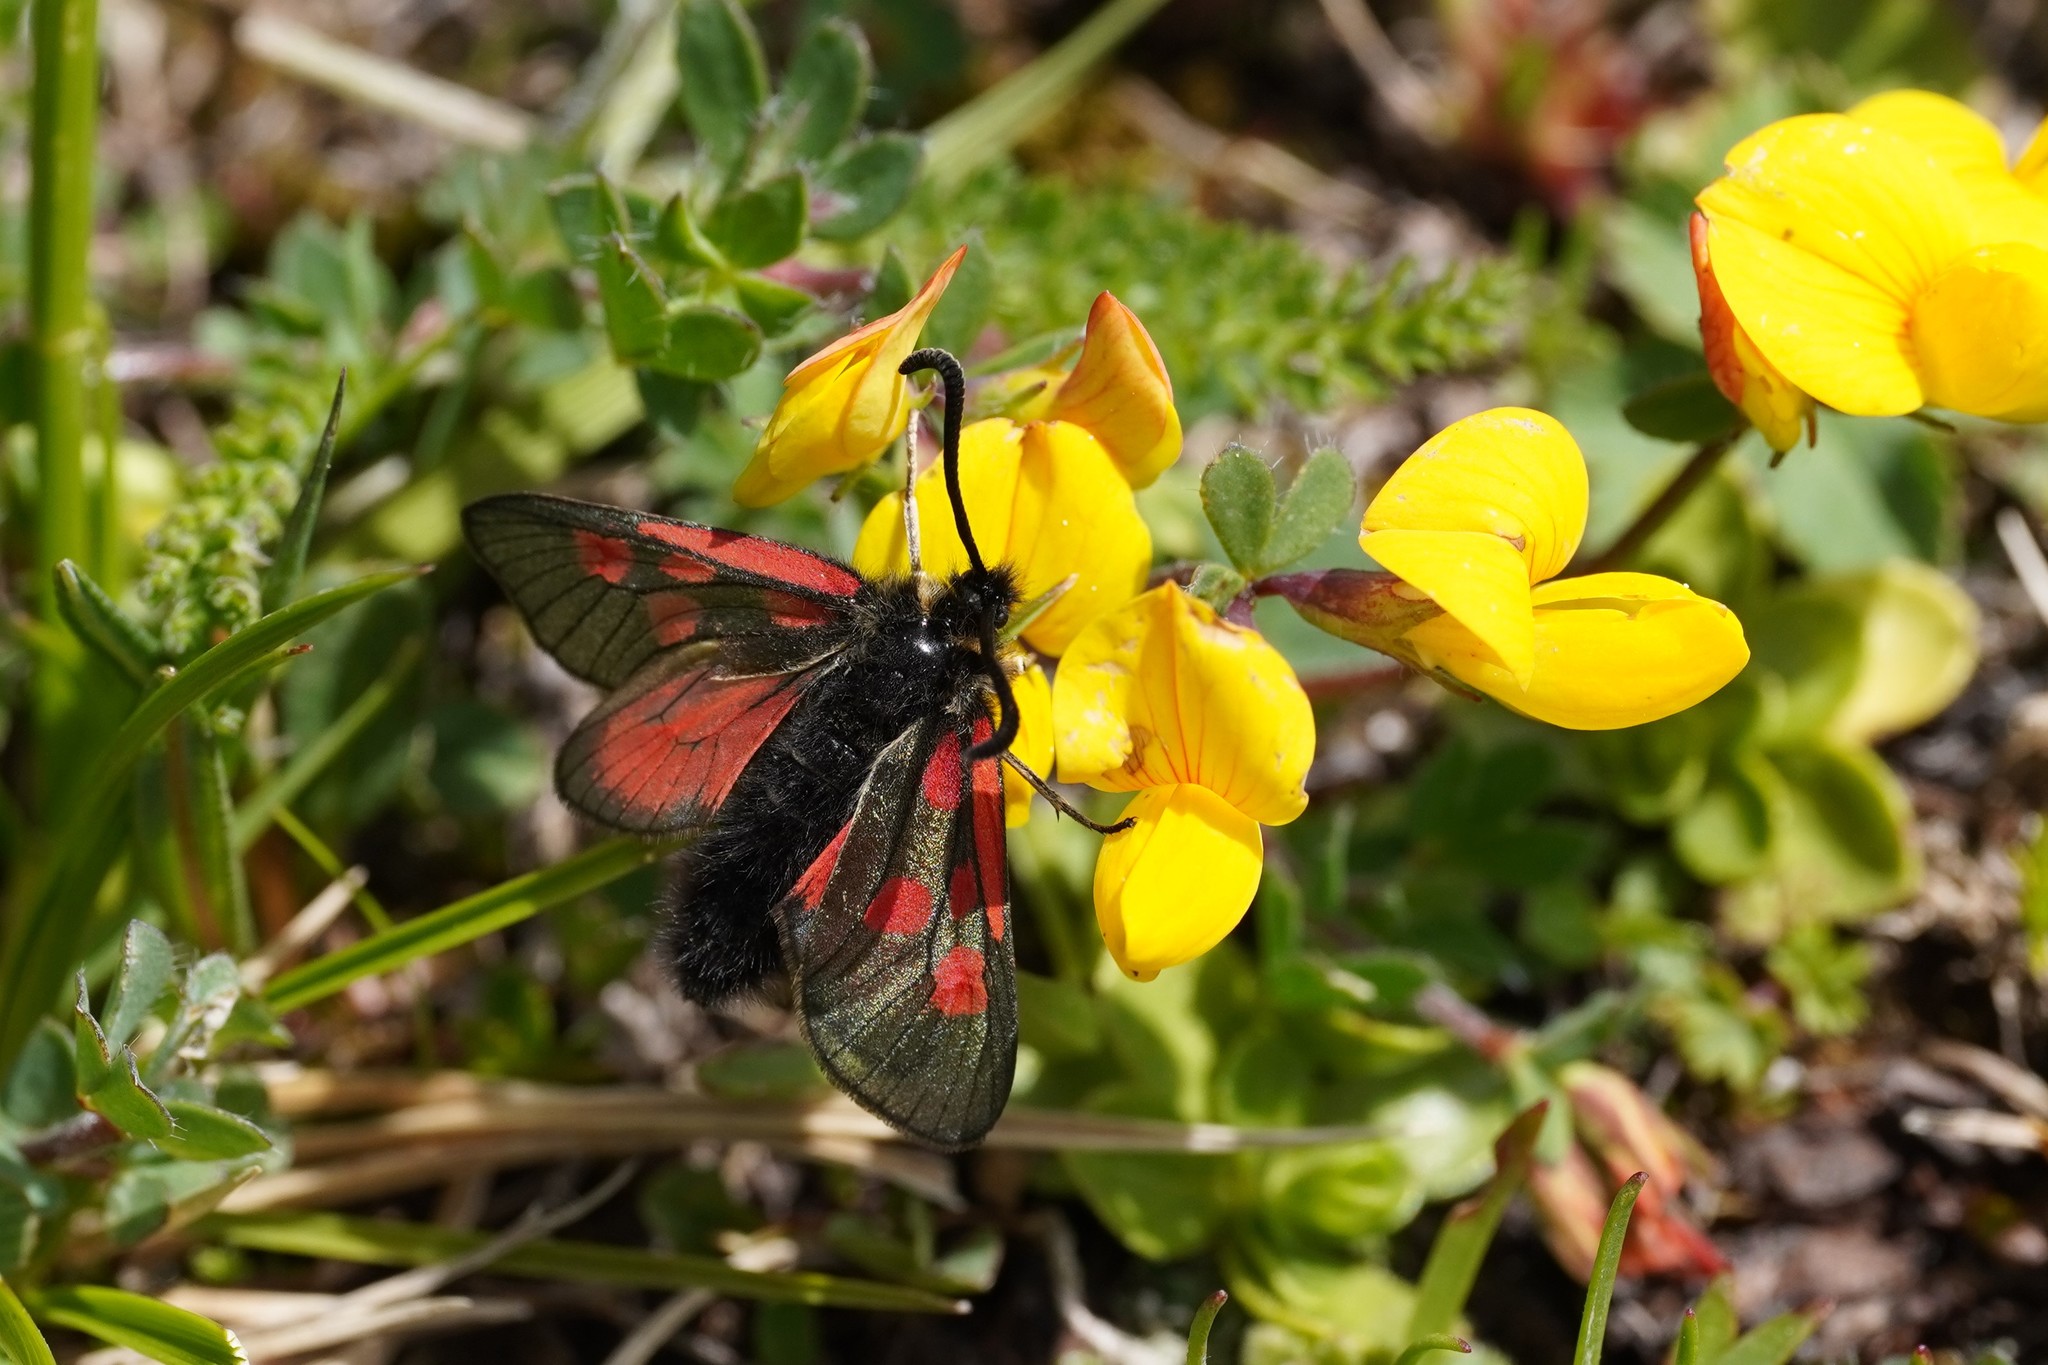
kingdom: Animalia
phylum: Arthropoda
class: Insecta
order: Lepidoptera
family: Zygaenidae
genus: Zygaena
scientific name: Zygaena exulans
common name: Scotch burnet
